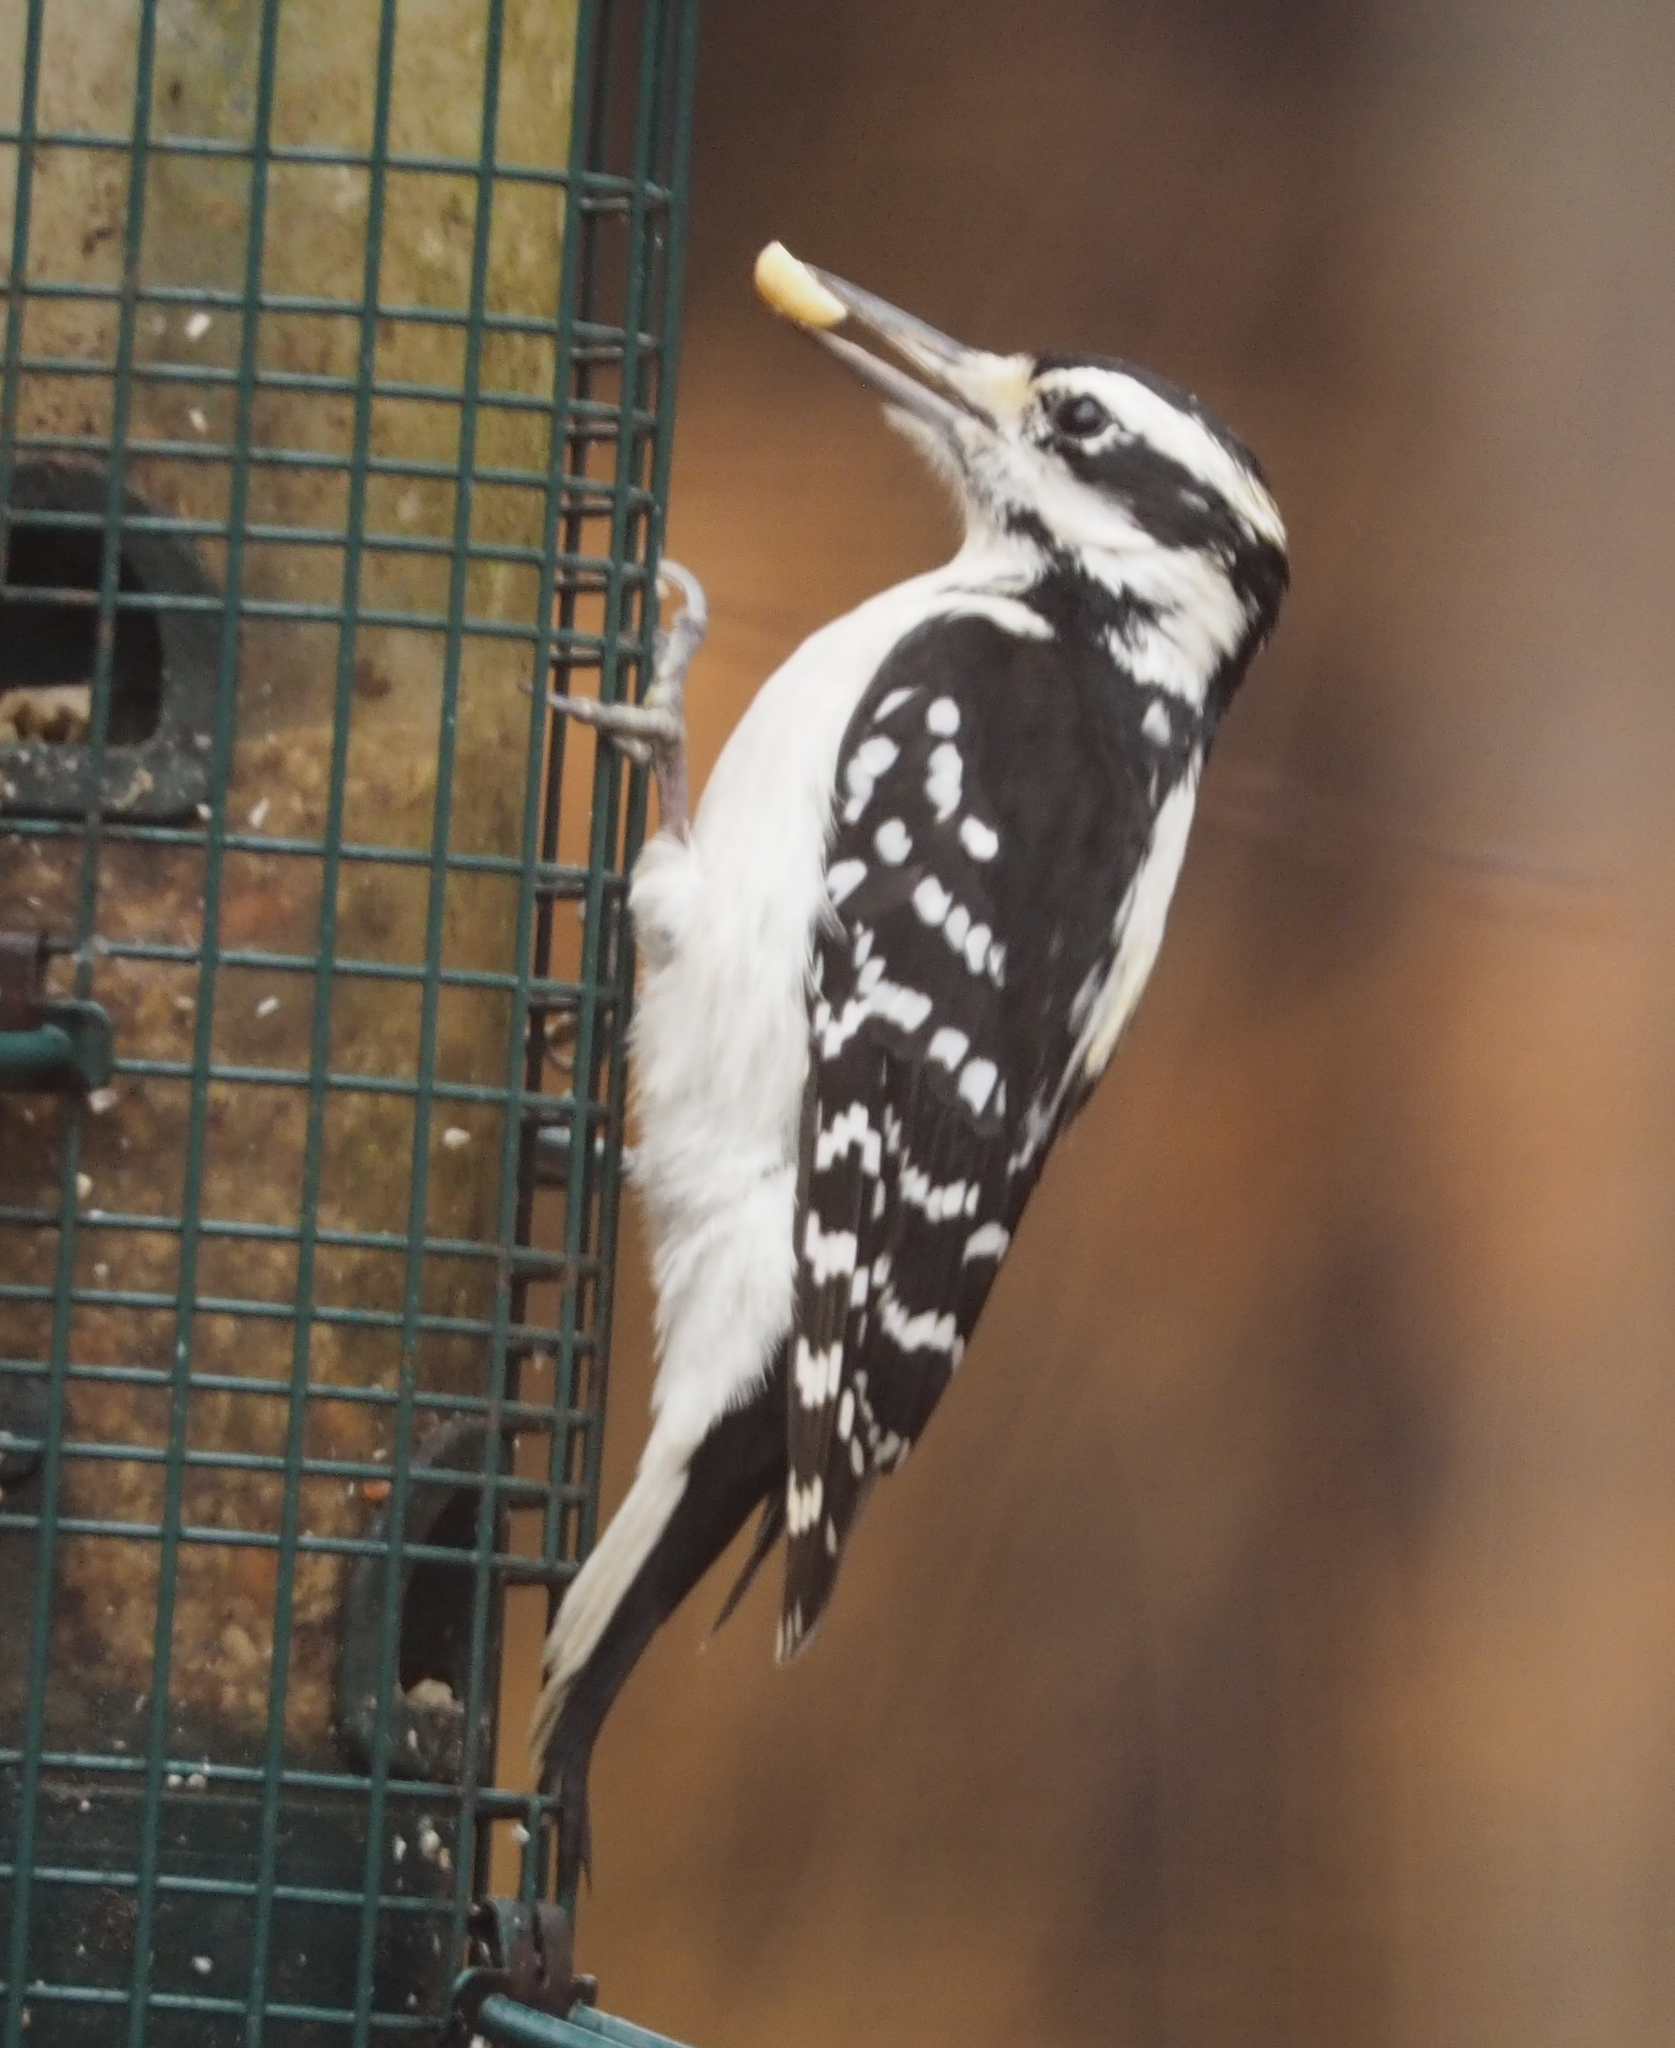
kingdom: Animalia
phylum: Chordata
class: Aves
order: Piciformes
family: Picidae
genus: Leuconotopicus
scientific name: Leuconotopicus villosus
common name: Hairy woodpecker
